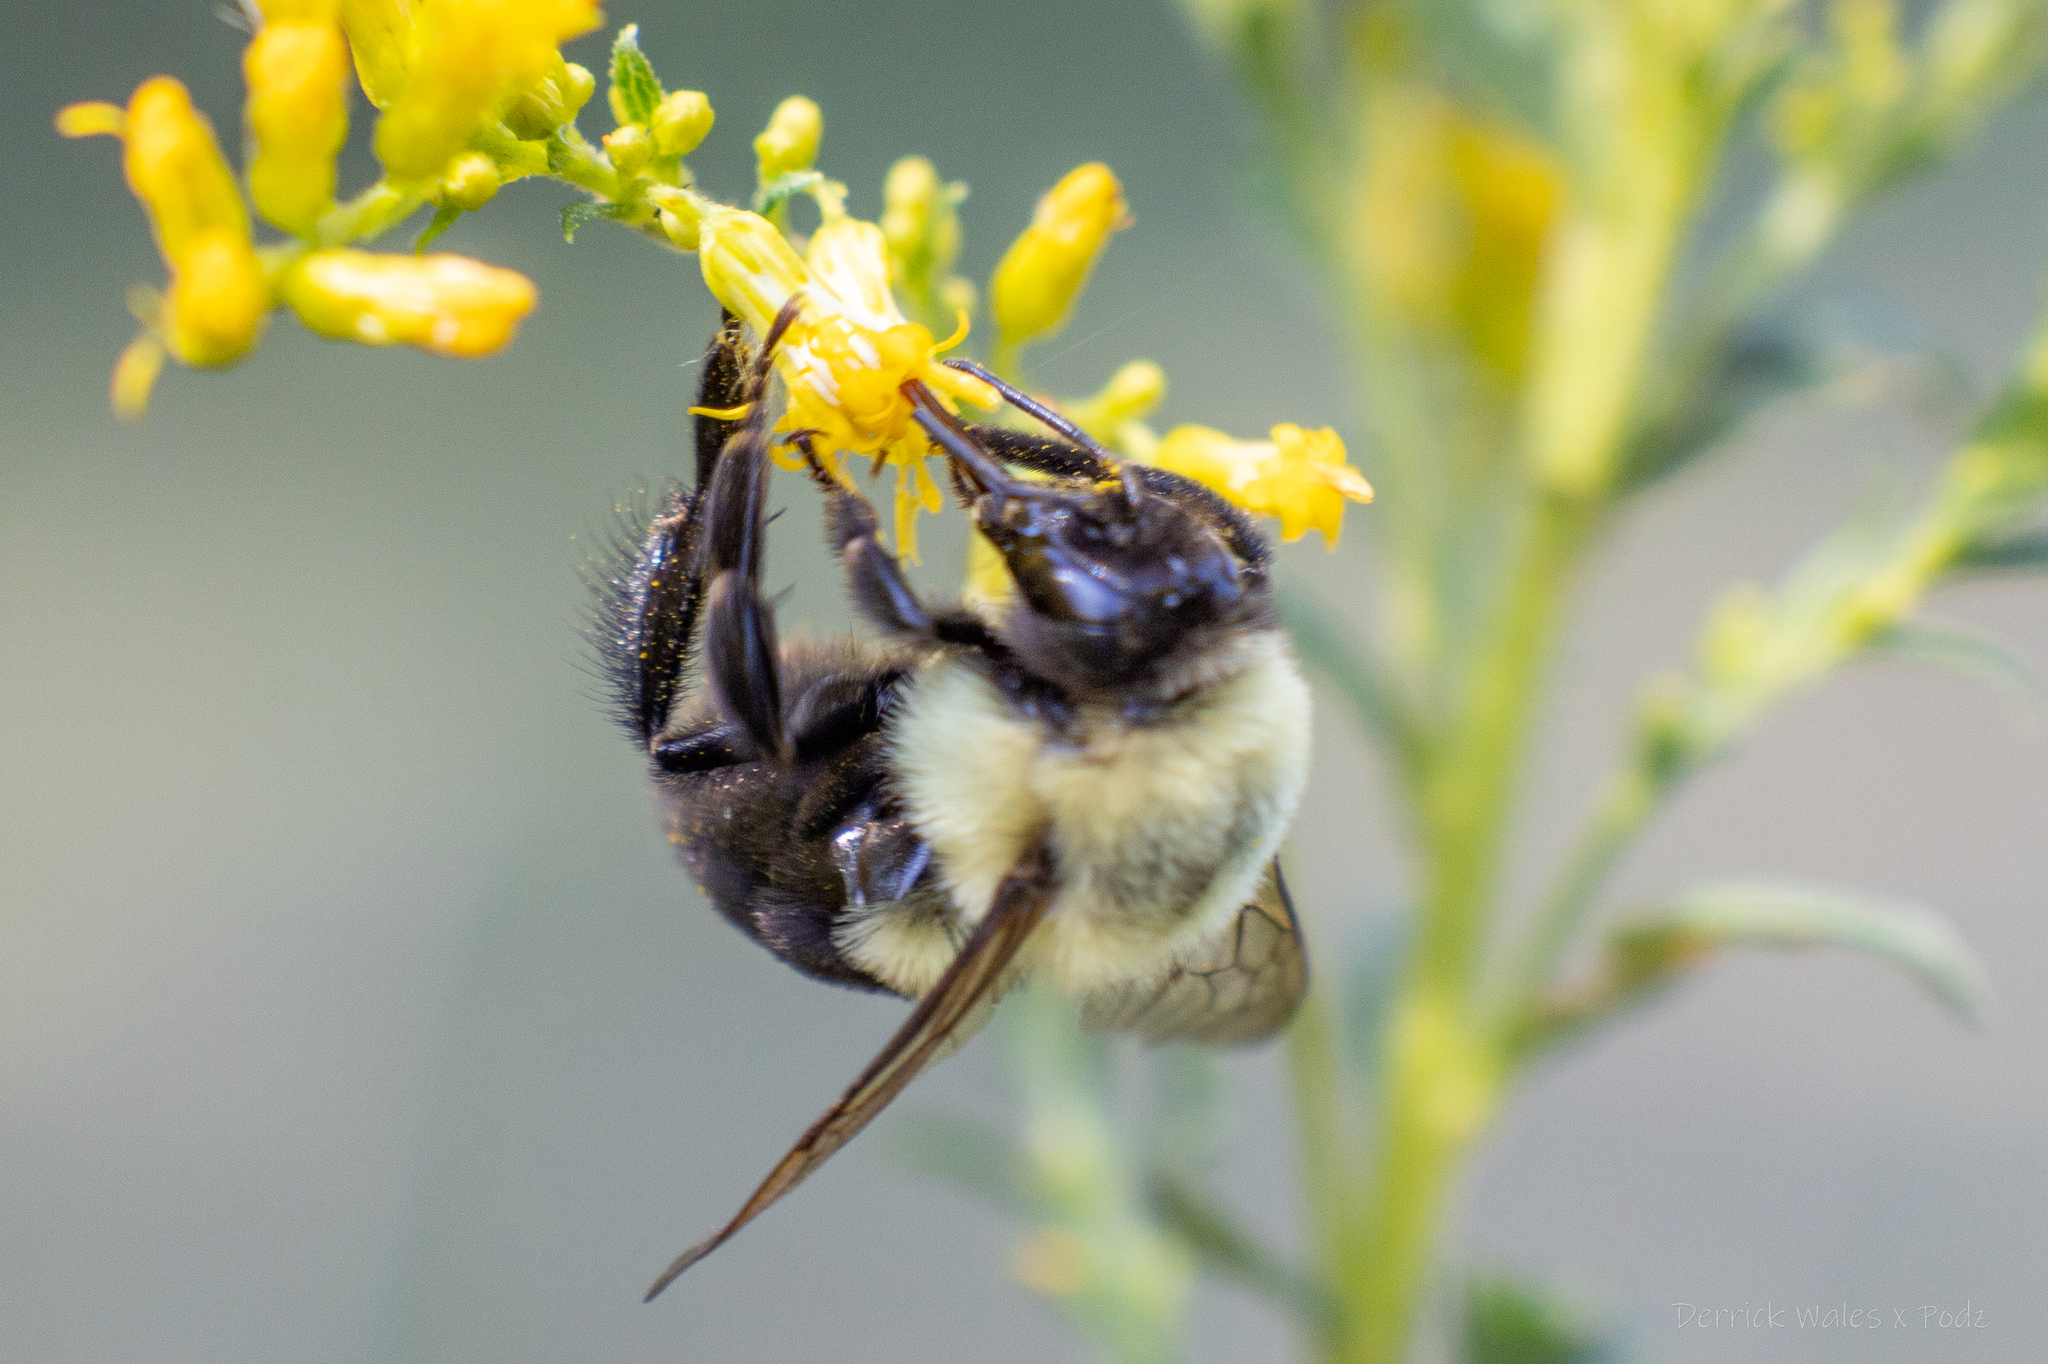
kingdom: Animalia
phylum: Arthropoda
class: Insecta
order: Hymenoptera
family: Apidae
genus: Bombus
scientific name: Bombus impatiens
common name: Common eastern bumble bee
